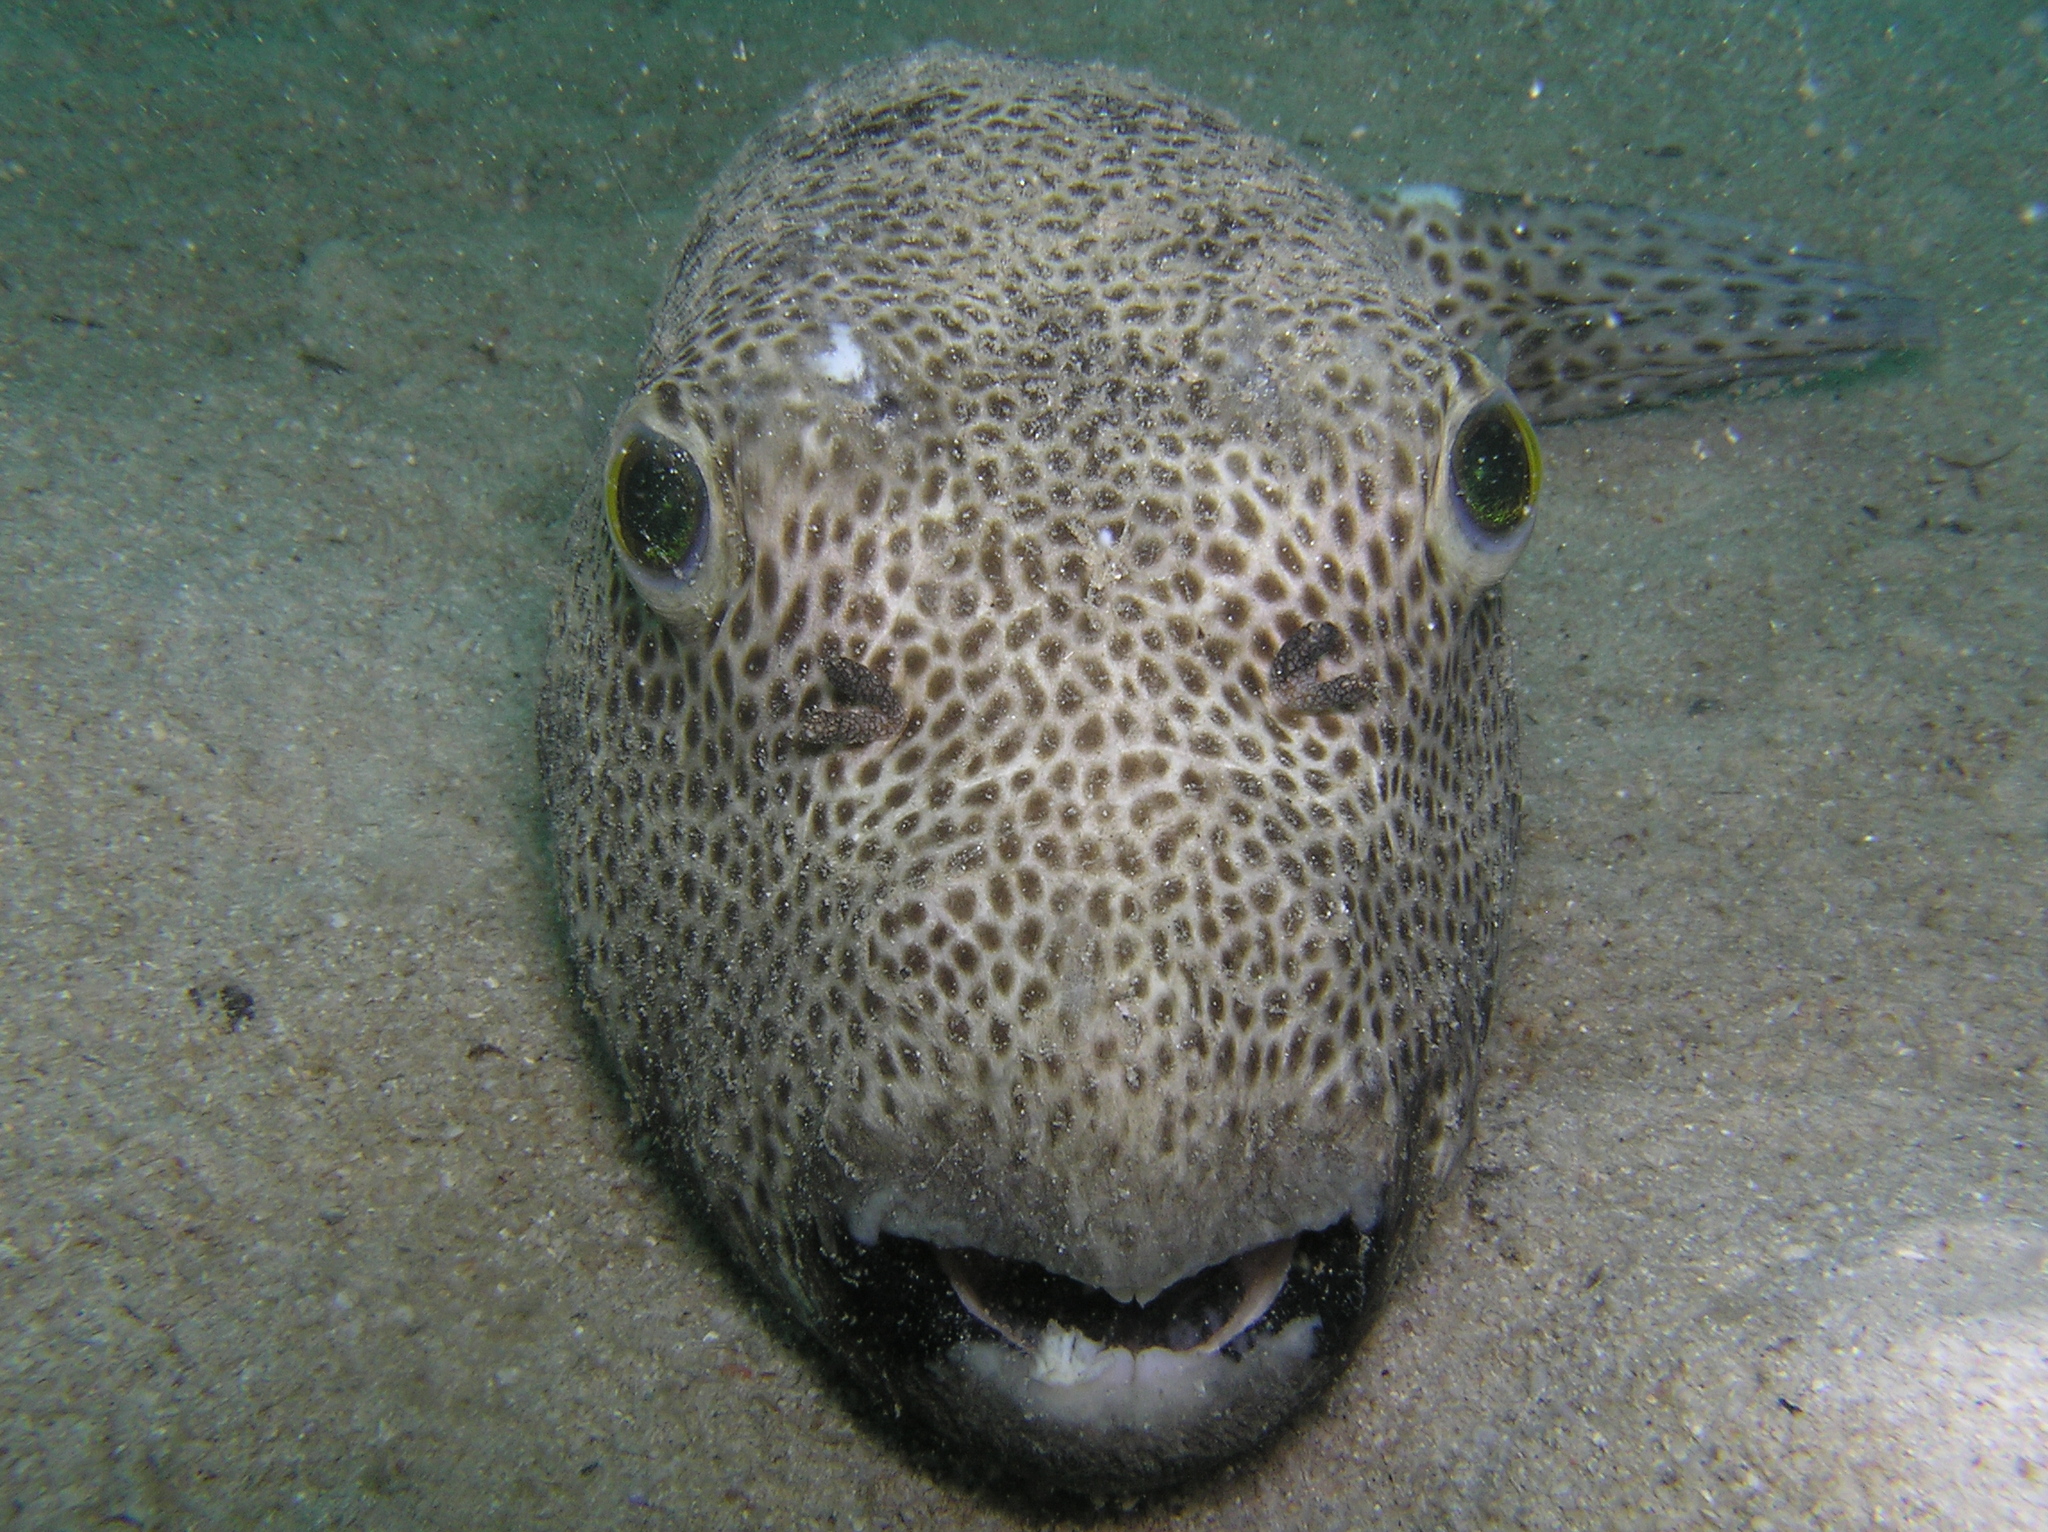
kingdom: Animalia
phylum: Chordata
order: Tetraodontiformes
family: Tetraodontidae
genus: Arothron
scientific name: Arothron stellatus
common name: Star blaasop
